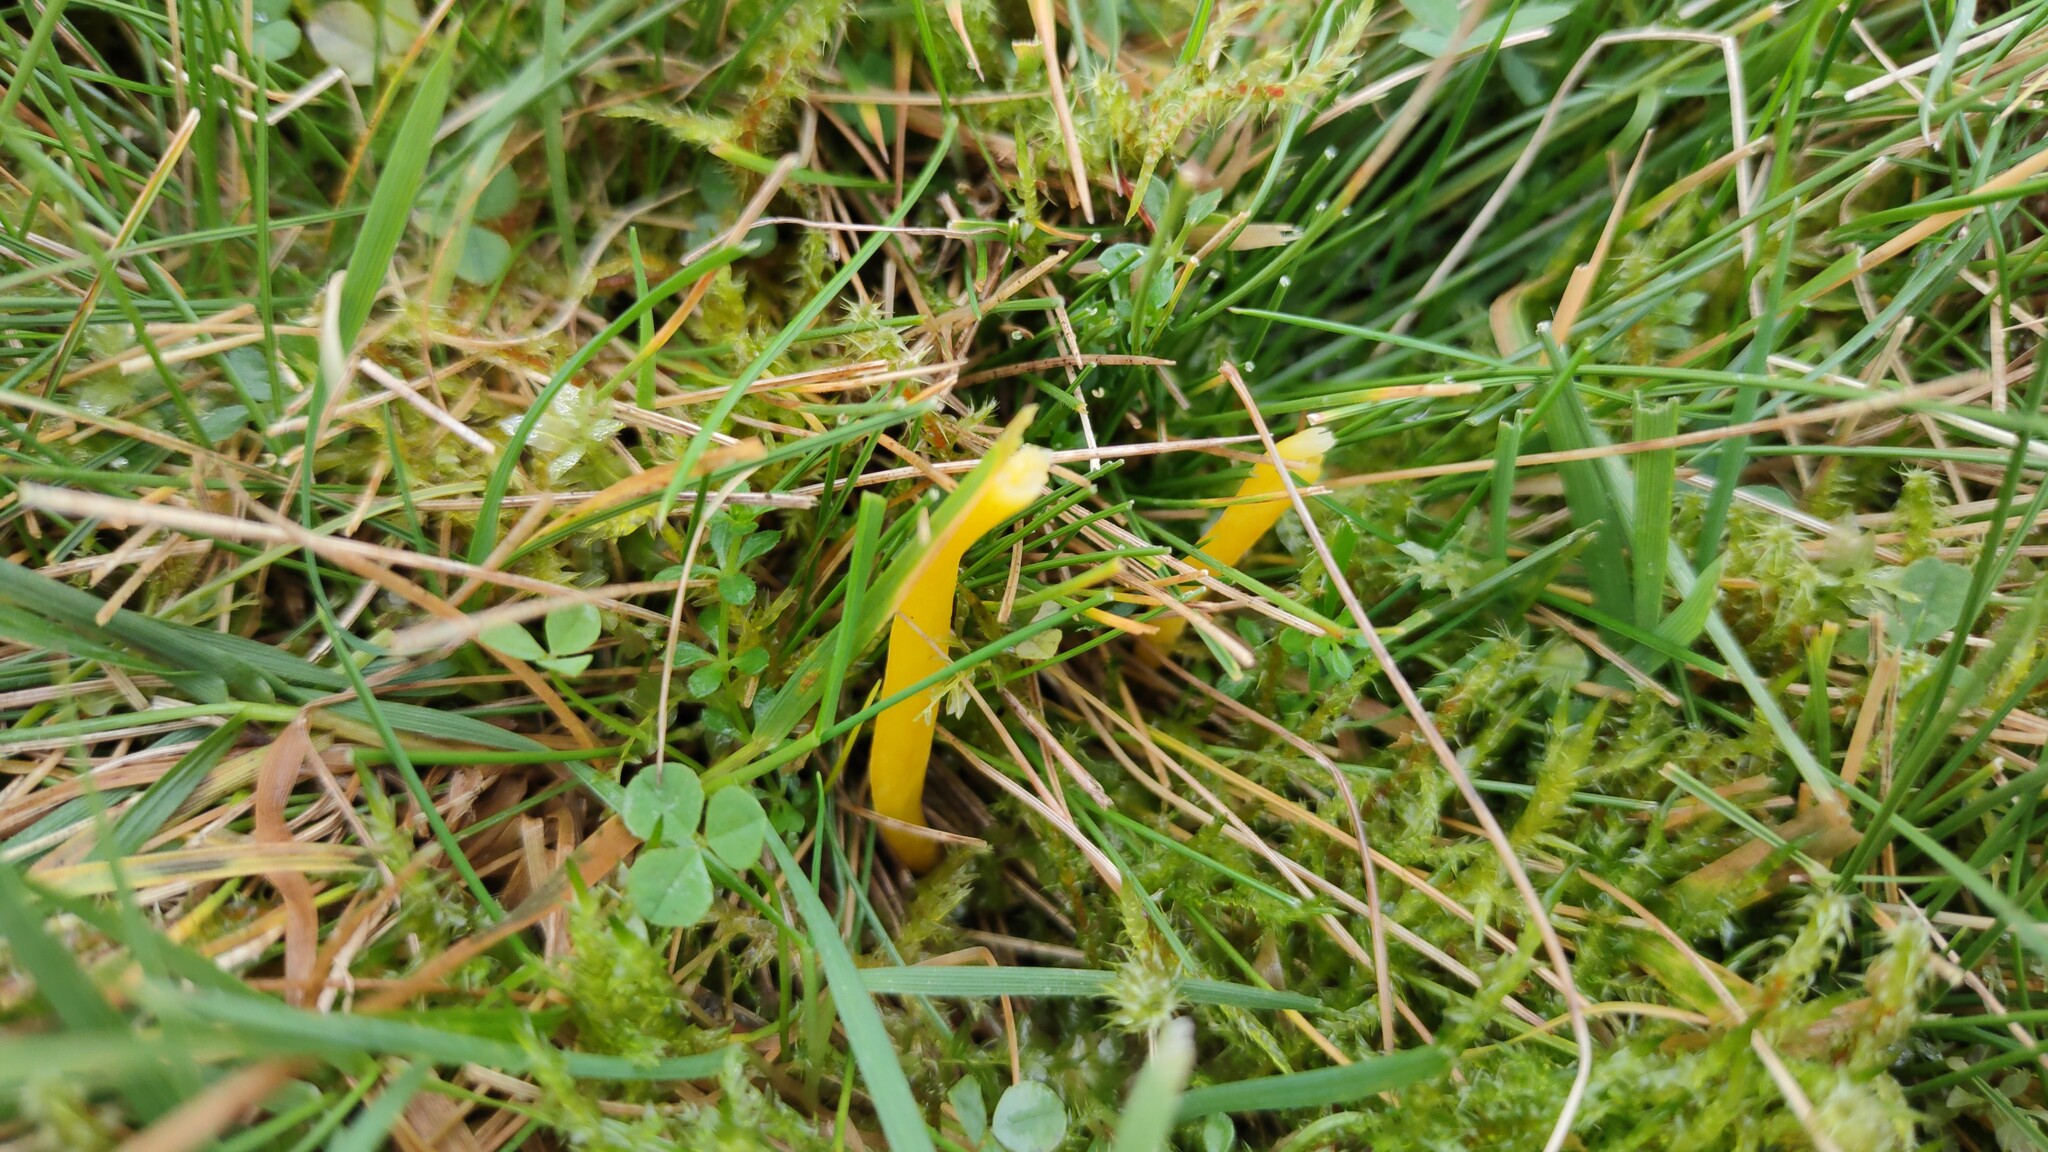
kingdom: Fungi
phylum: Basidiomycota
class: Agaricomycetes
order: Agaricales
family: Clavariaceae
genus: Clavulinopsis
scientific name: Clavulinopsis helvola
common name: Yellow club
